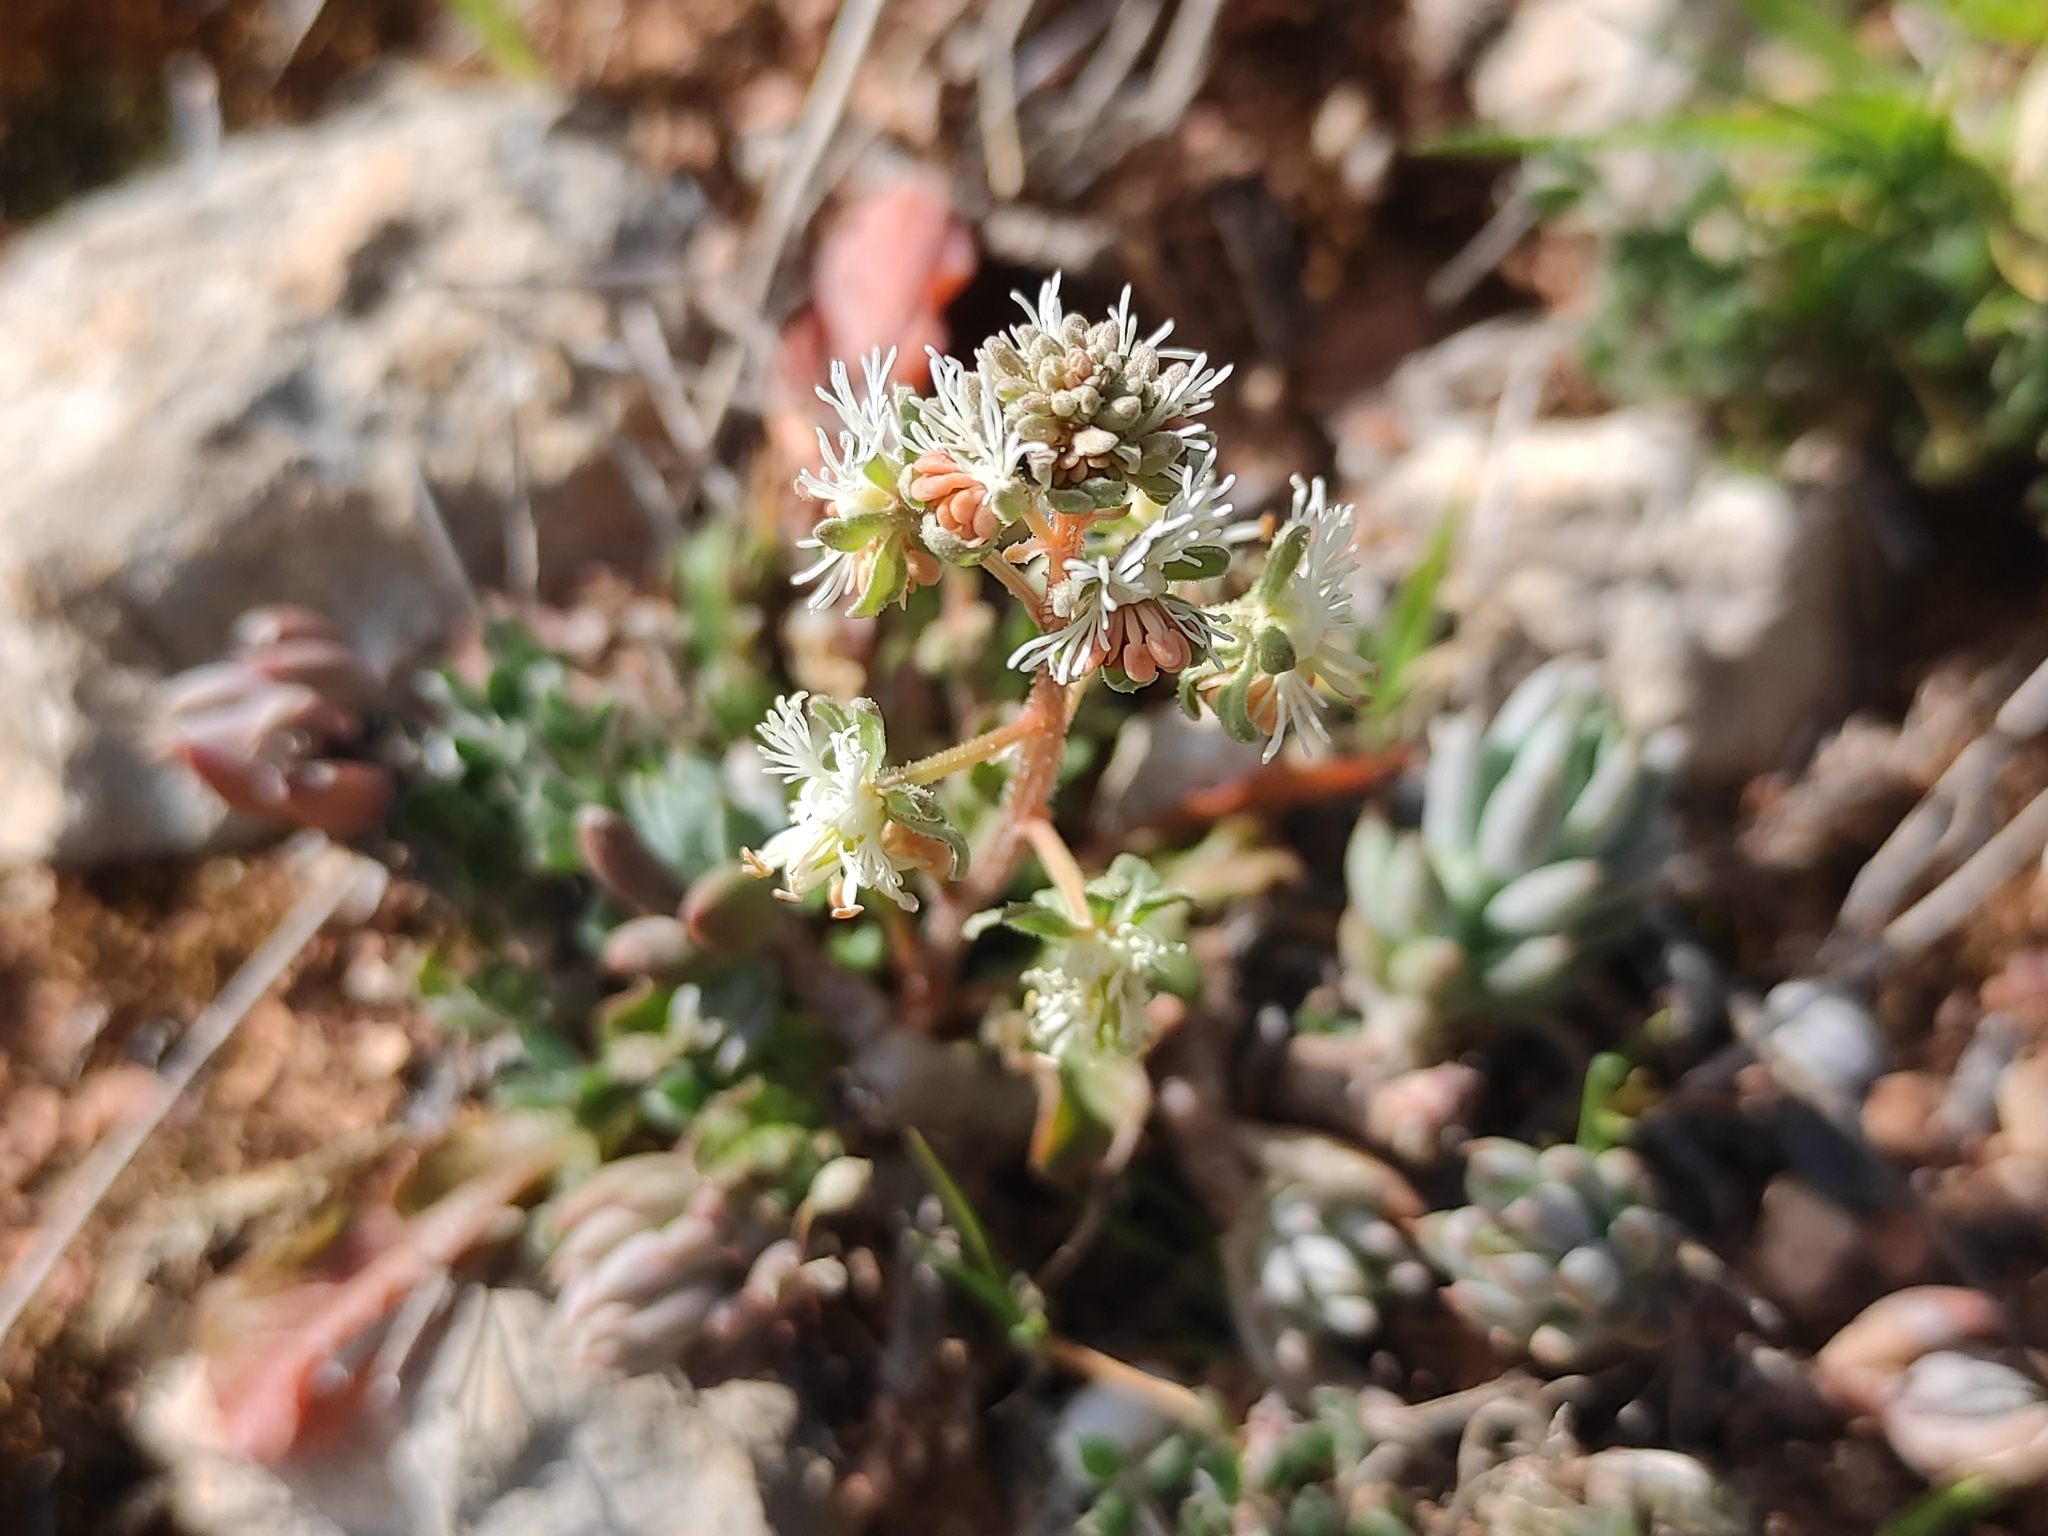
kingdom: Plantae
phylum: Tracheophyta
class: Magnoliopsida
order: Brassicales
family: Resedaceae
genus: Reseda
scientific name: Reseda phyteuma
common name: Corn mignonette
